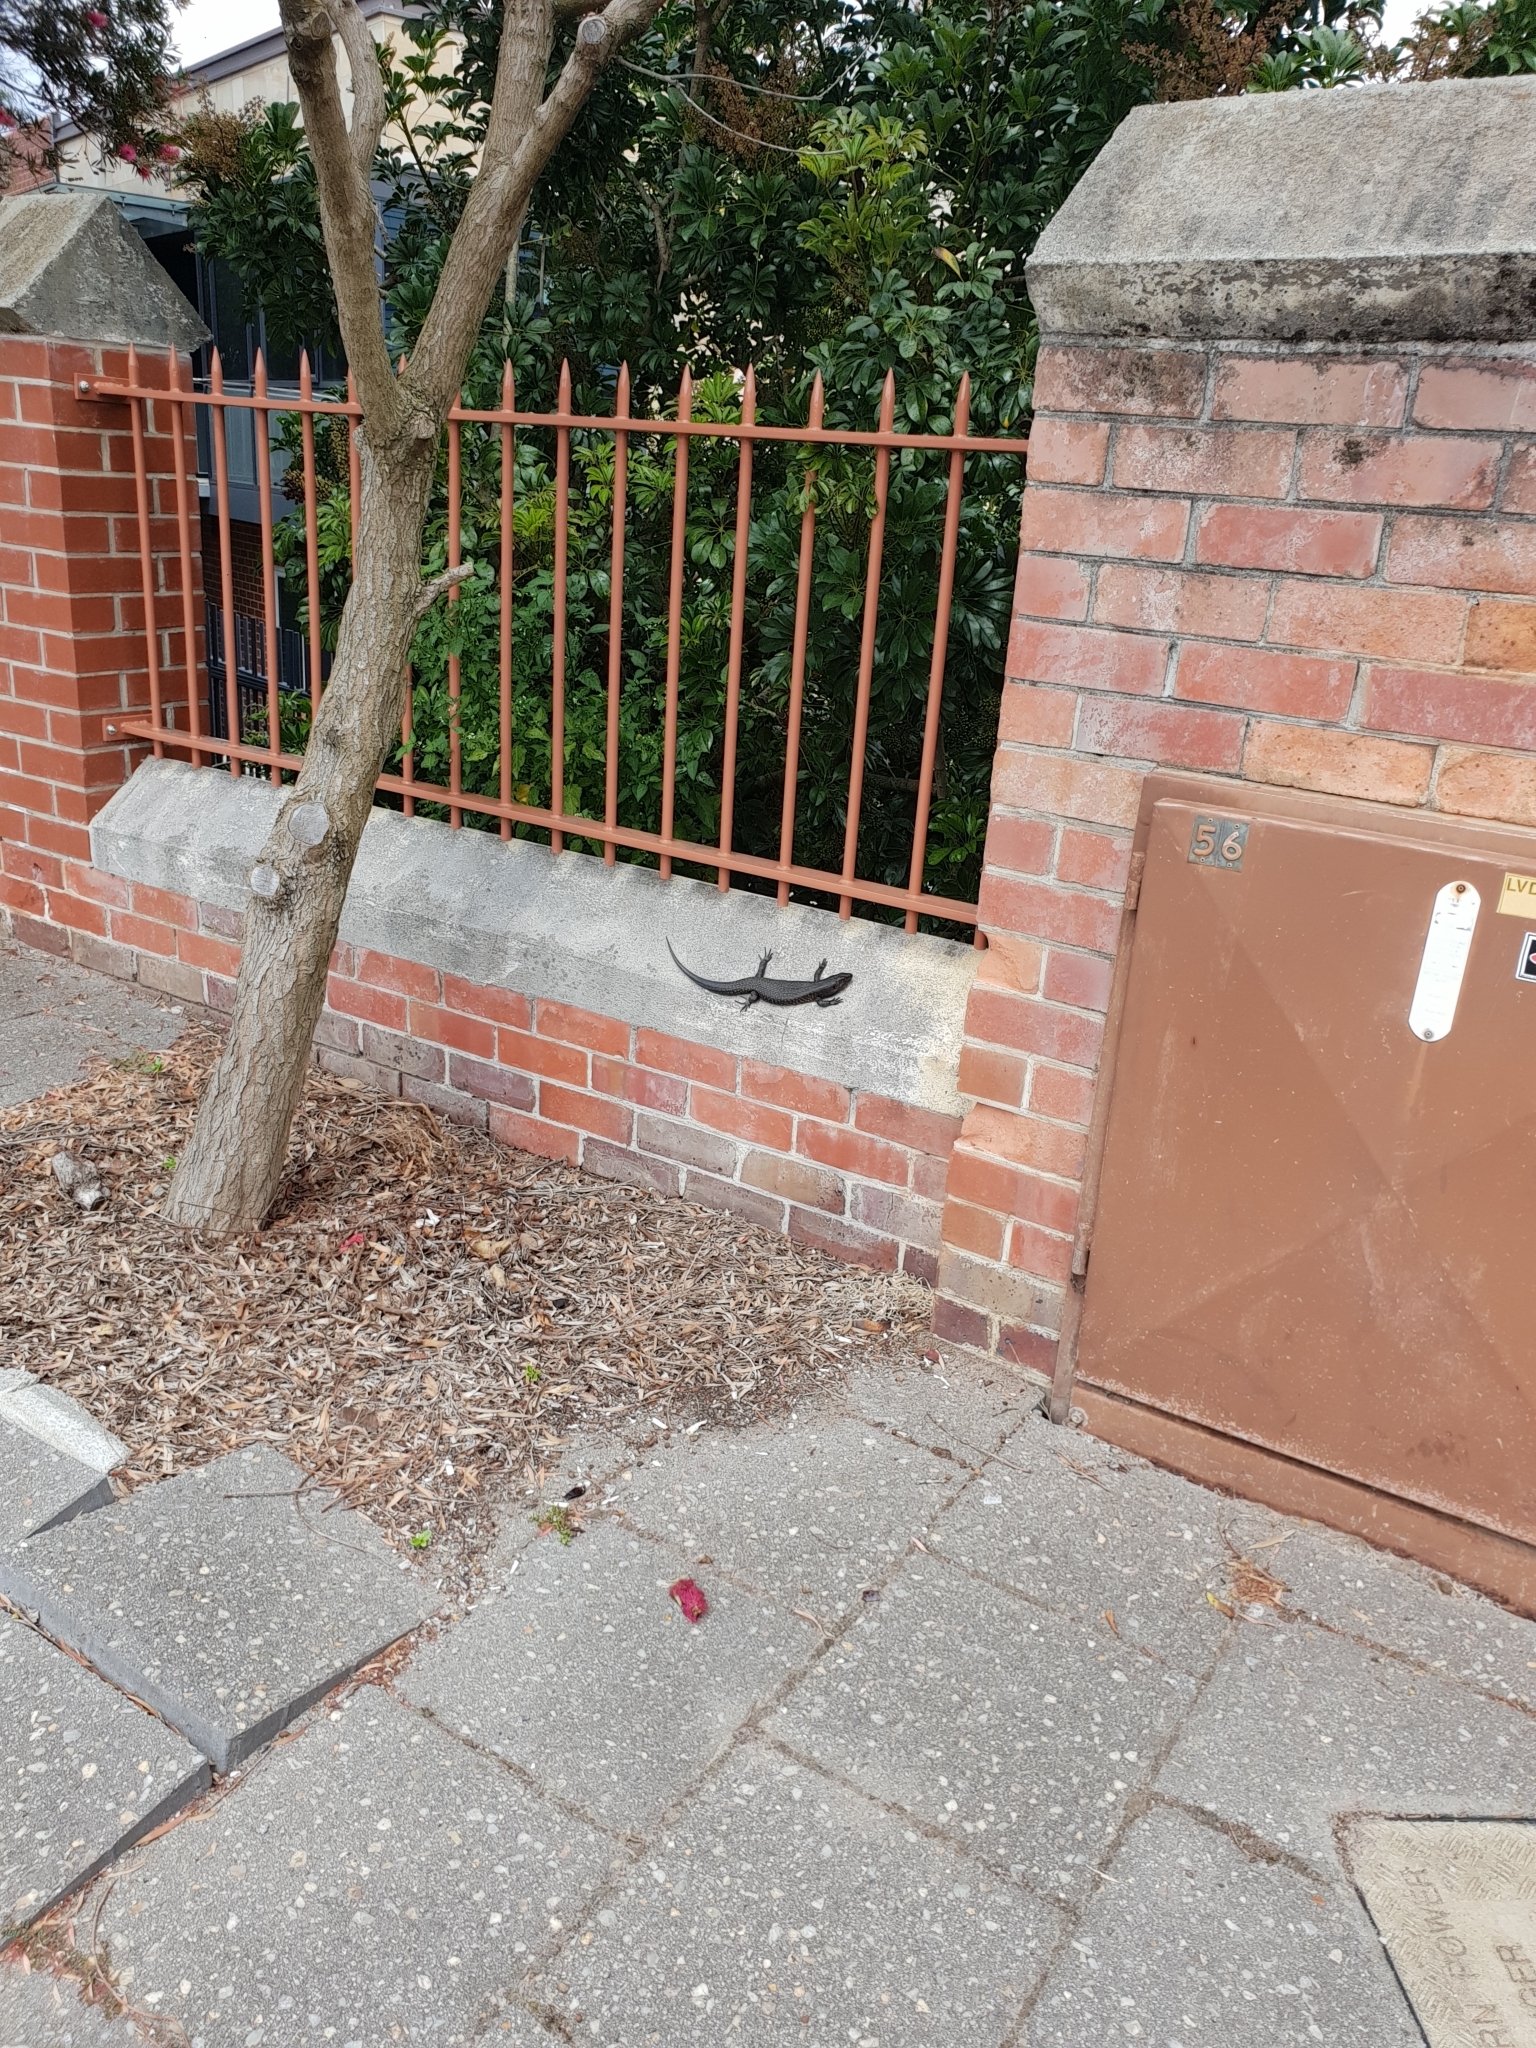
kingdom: Animalia
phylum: Chordata
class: Squamata
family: Scincidae
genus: Egernia
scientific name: Egernia kingii
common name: King's skink
